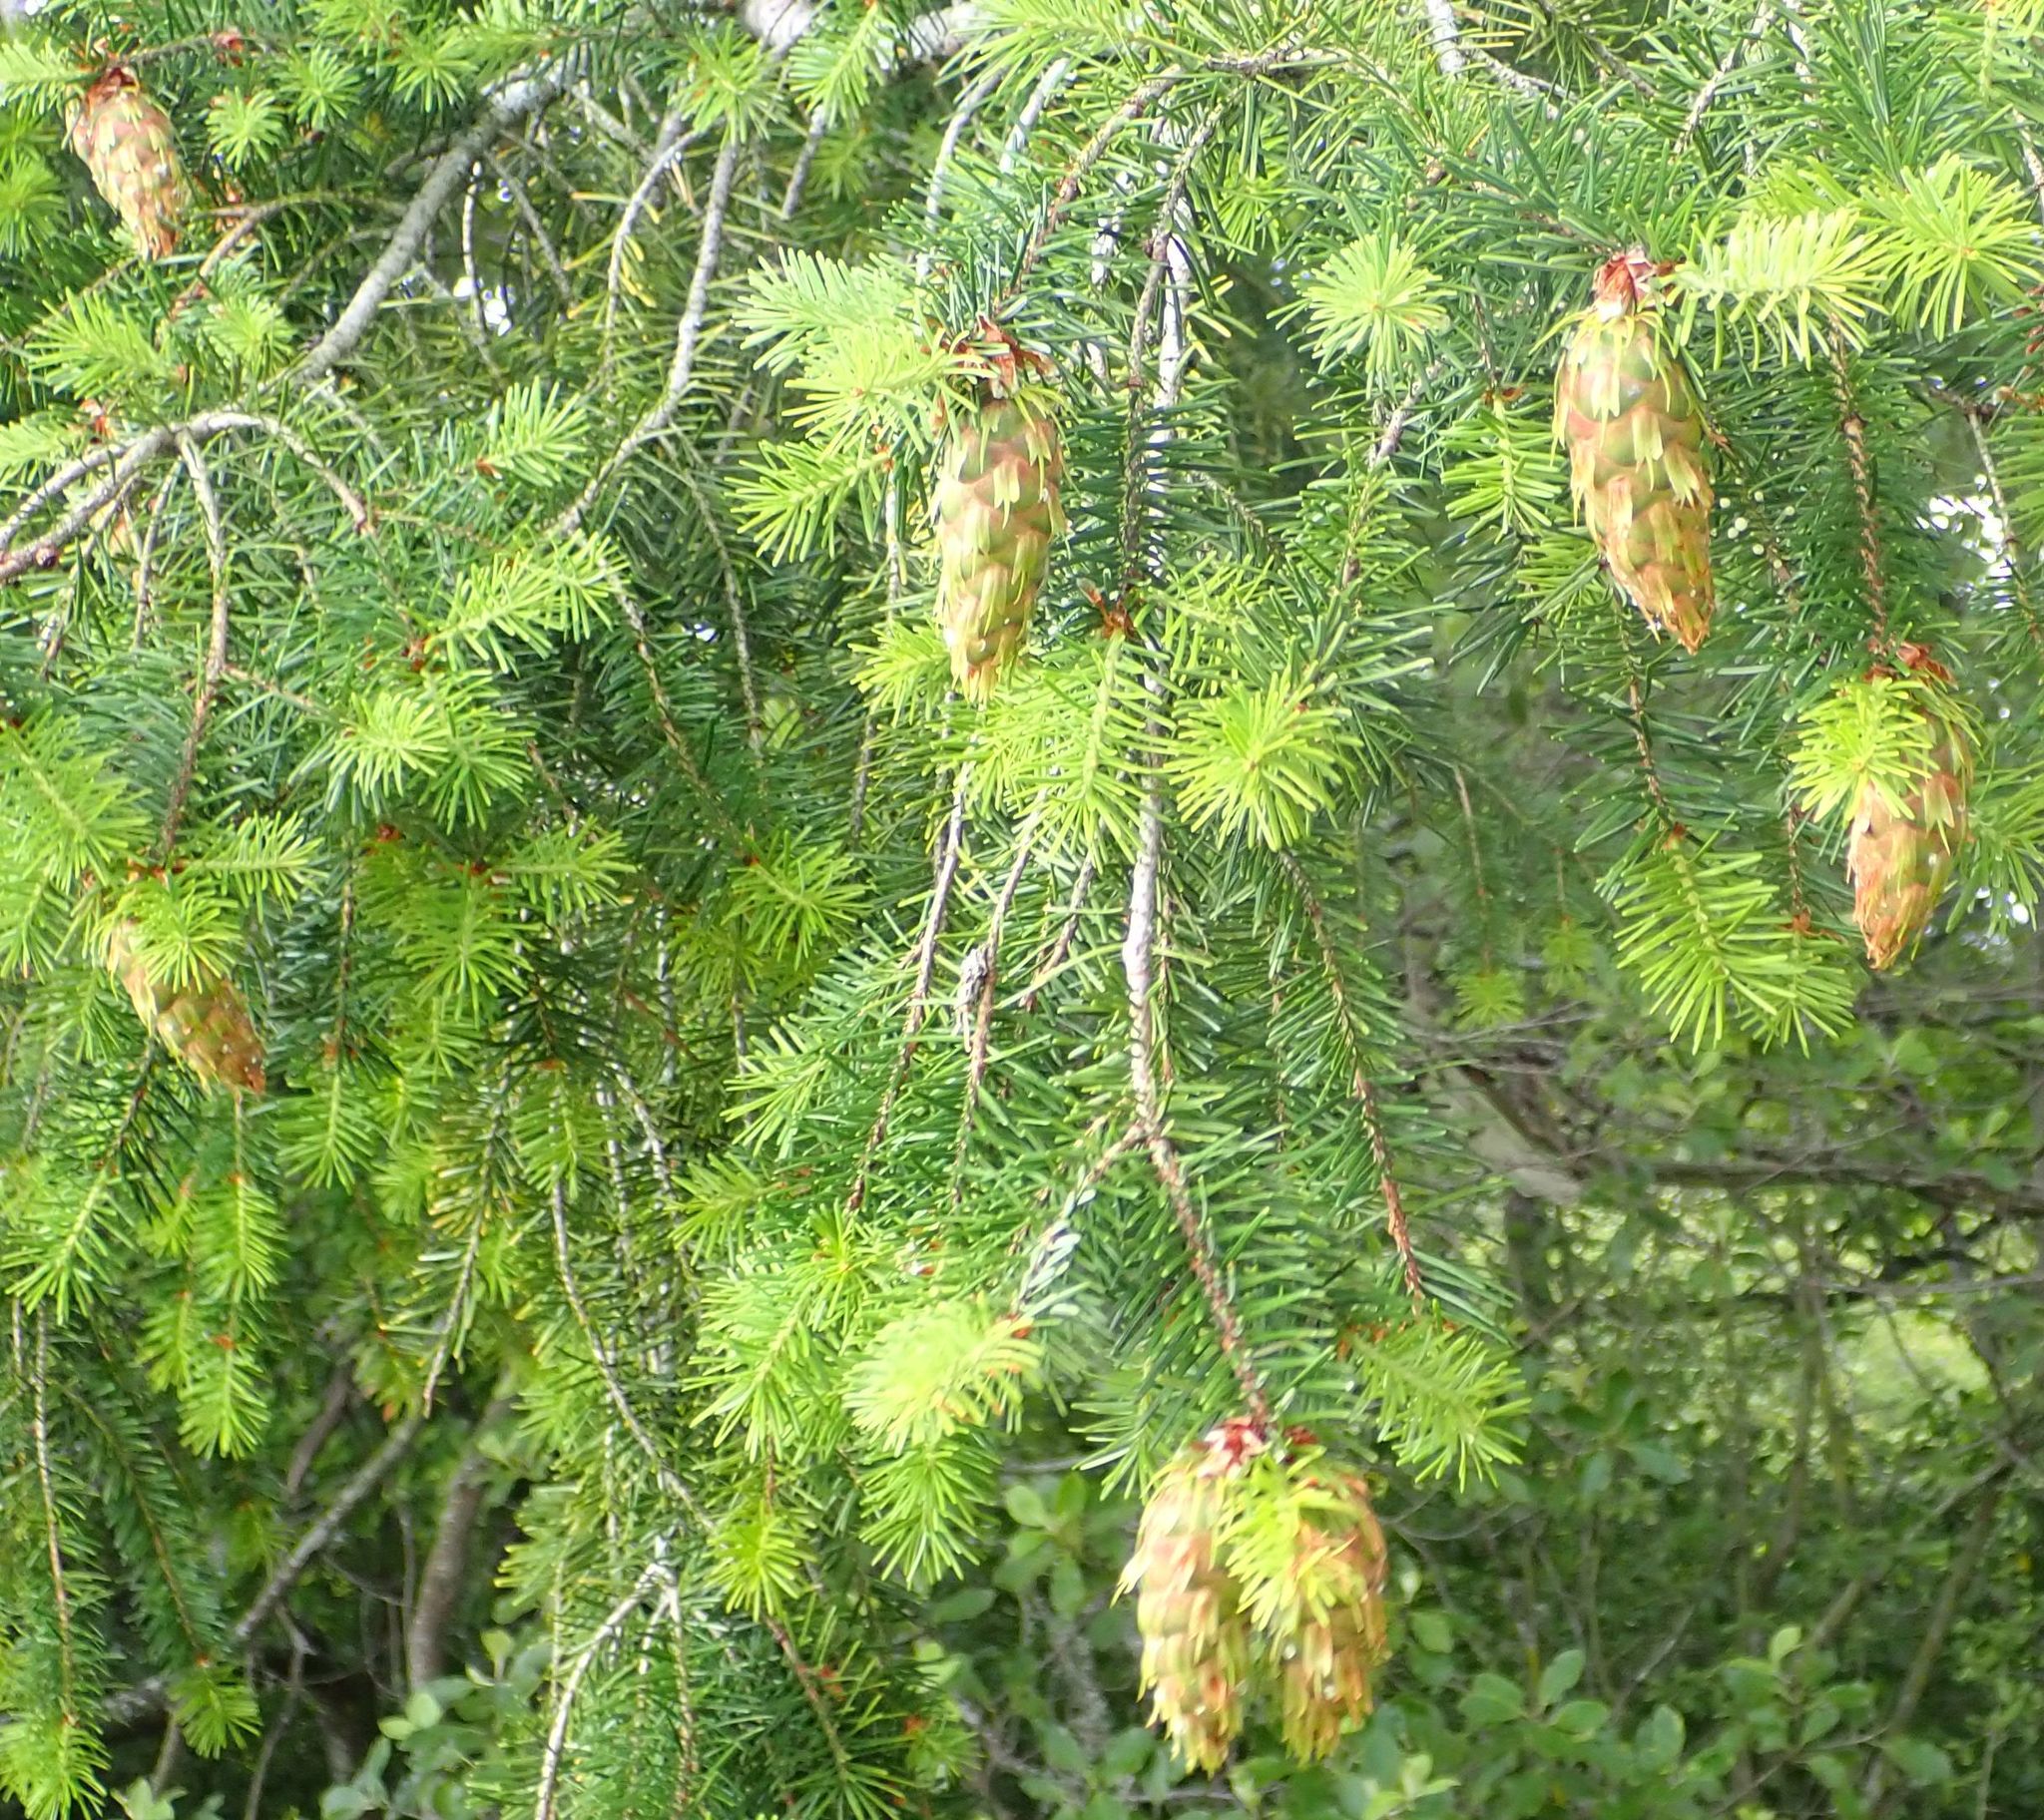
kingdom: Plantae
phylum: Tracheophyta
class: Pinopsida
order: Pinales
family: Pinaceae
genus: Pseudotsuga
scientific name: Pseudotsuga menziesii
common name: Douglas fir
